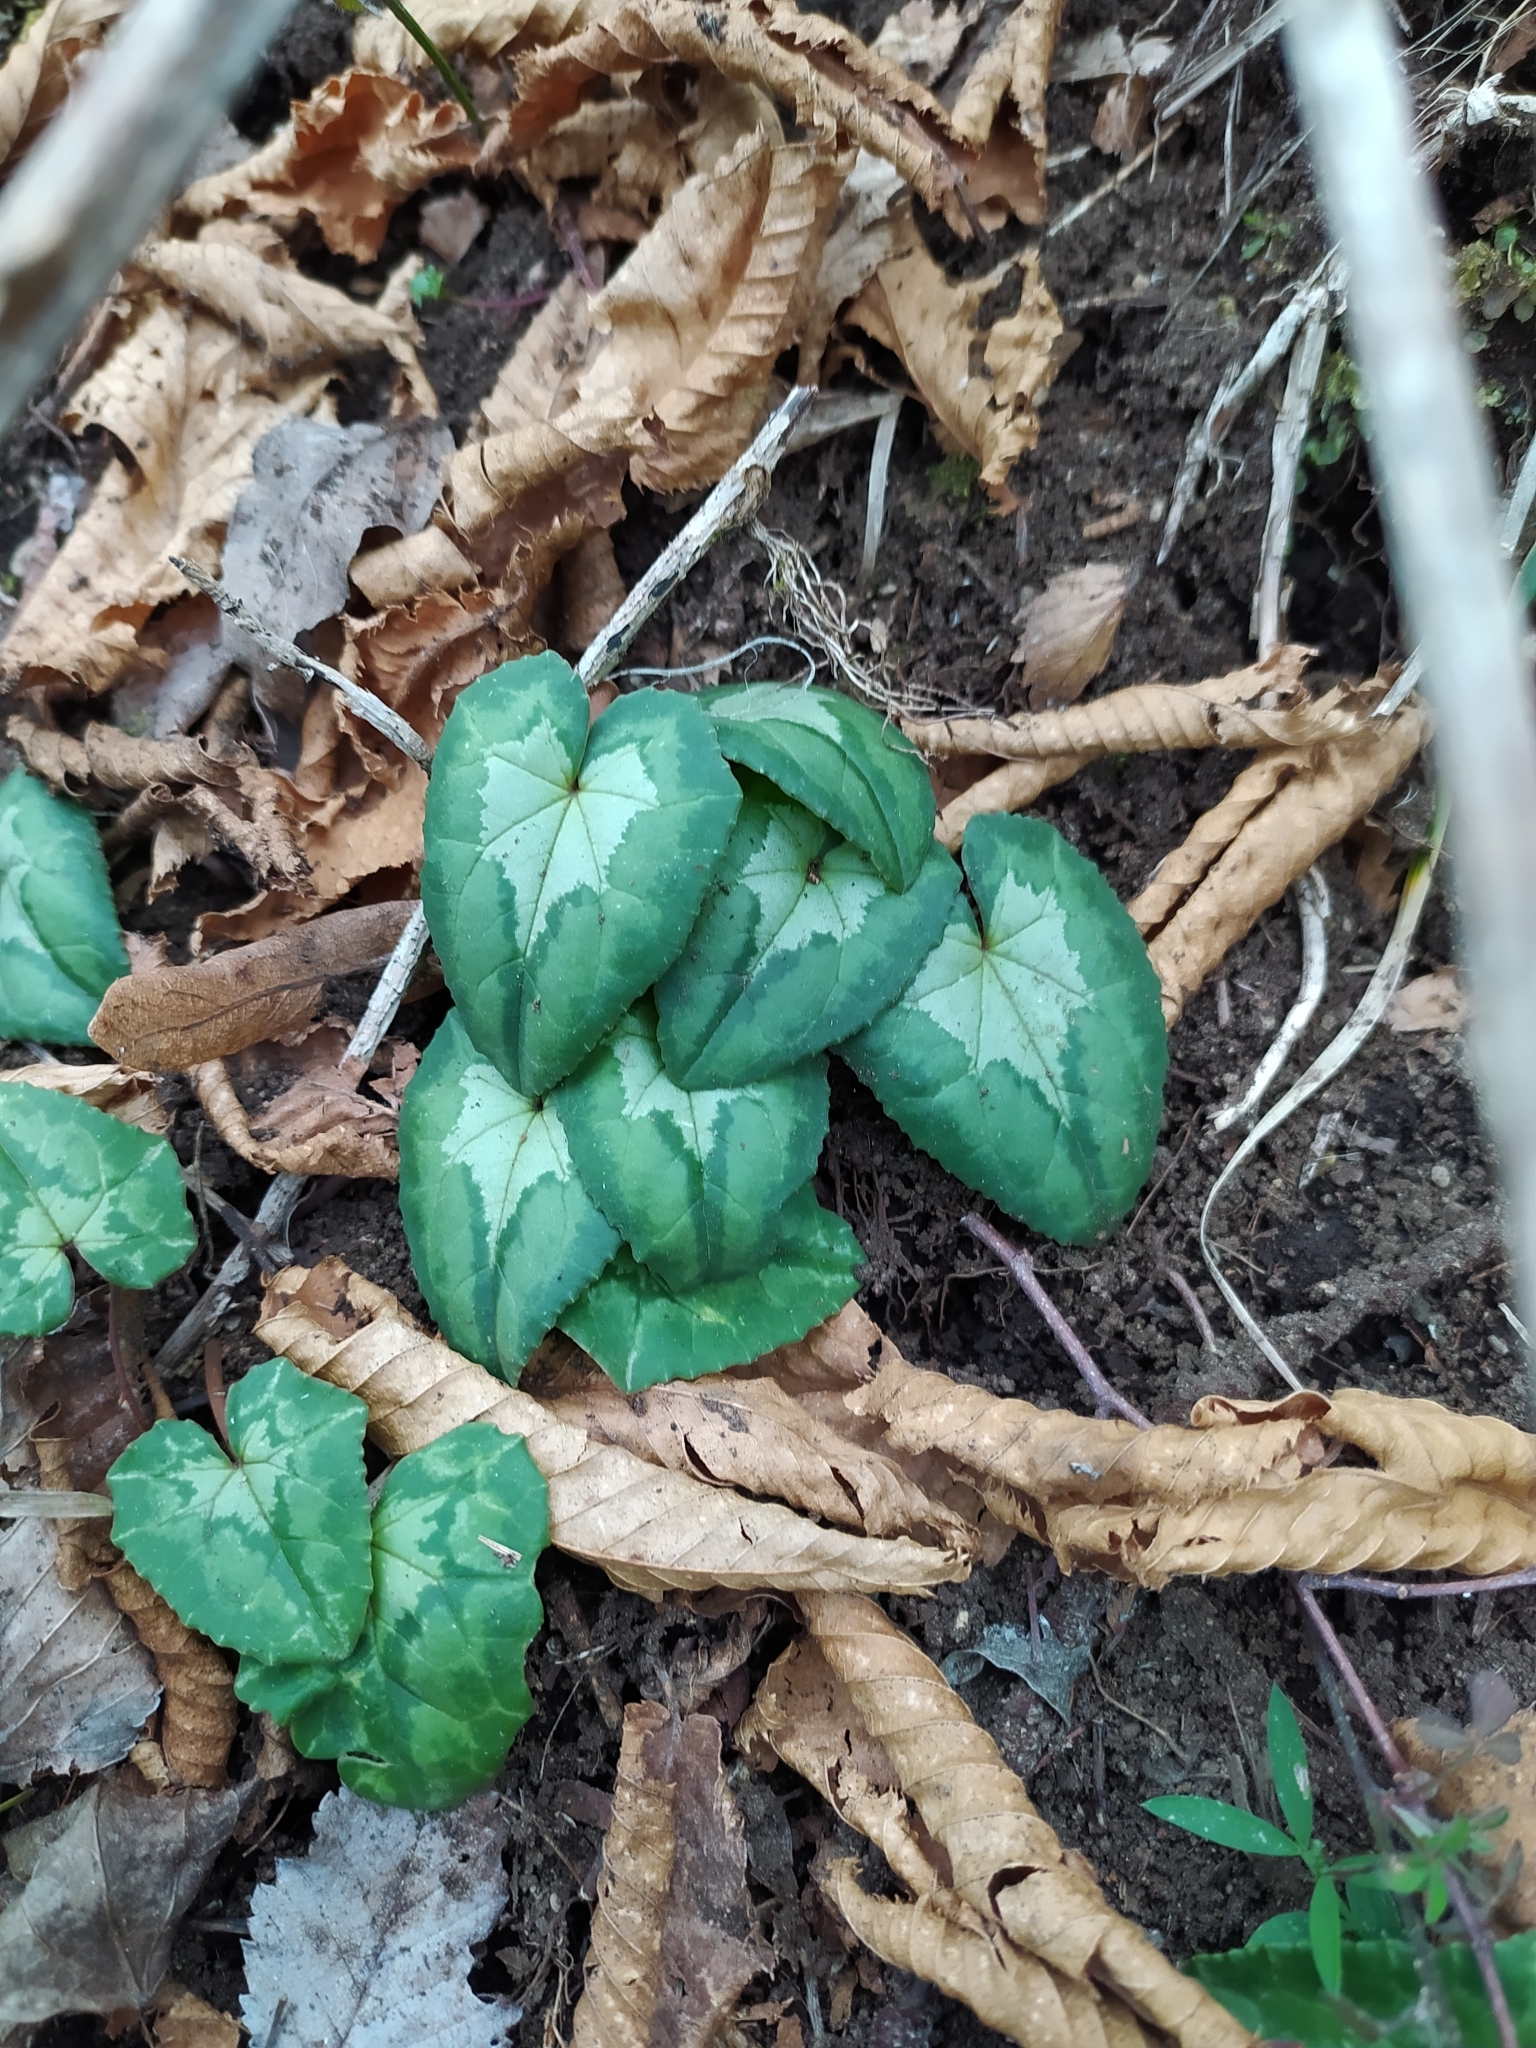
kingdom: Plantae
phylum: Tracheophyta
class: Magnoliopsida
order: Ericales
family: Primulaceae
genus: Cyclamen
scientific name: Cyclamen hederifolium
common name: Sowbread
